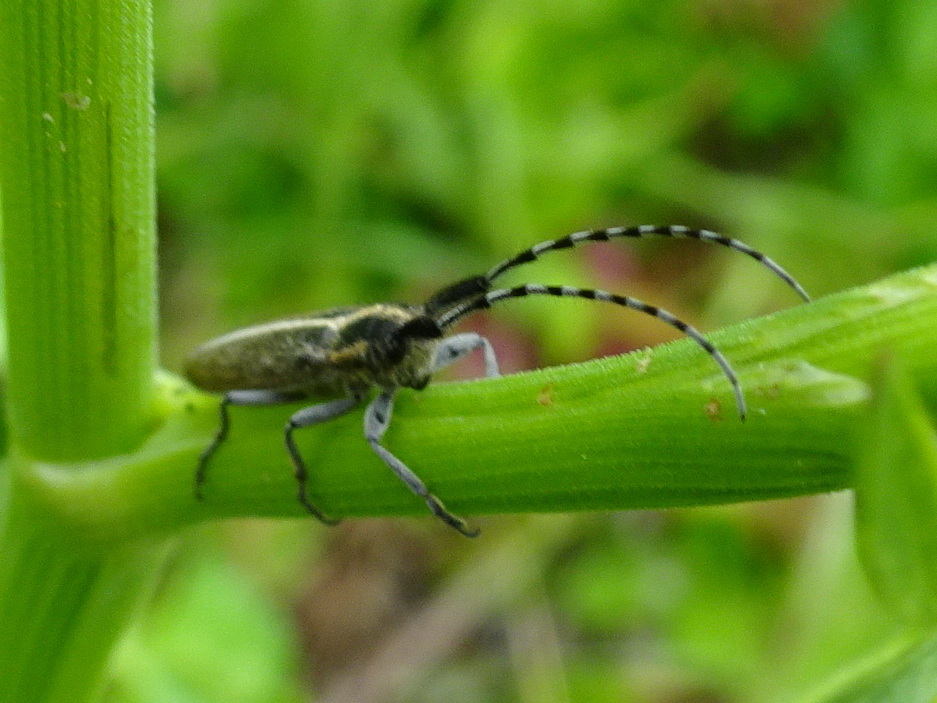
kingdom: Animalia
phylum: Arthropoda
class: Insecta
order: Coleoptera
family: Cerambycidae
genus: Agapanthia
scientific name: Agapanthia suturalis
